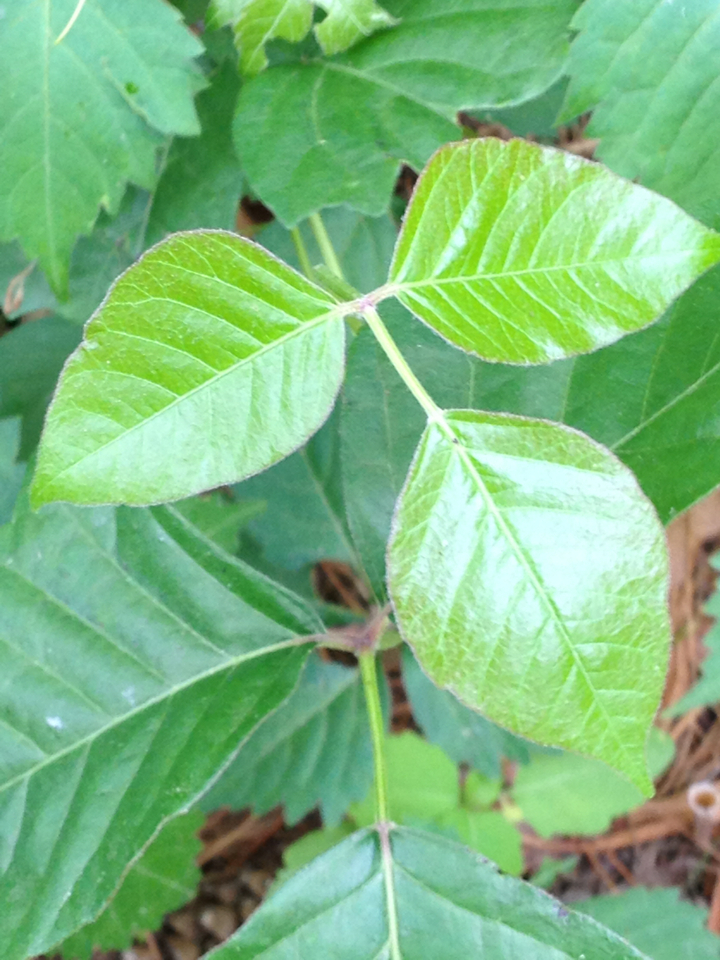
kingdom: Plantae
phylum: Tracheophyta
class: Magnoliopsida
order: Sapindales
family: Anacardiaceae
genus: Toxicodendron
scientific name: Toxicodendron radicans
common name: Poison ivy
